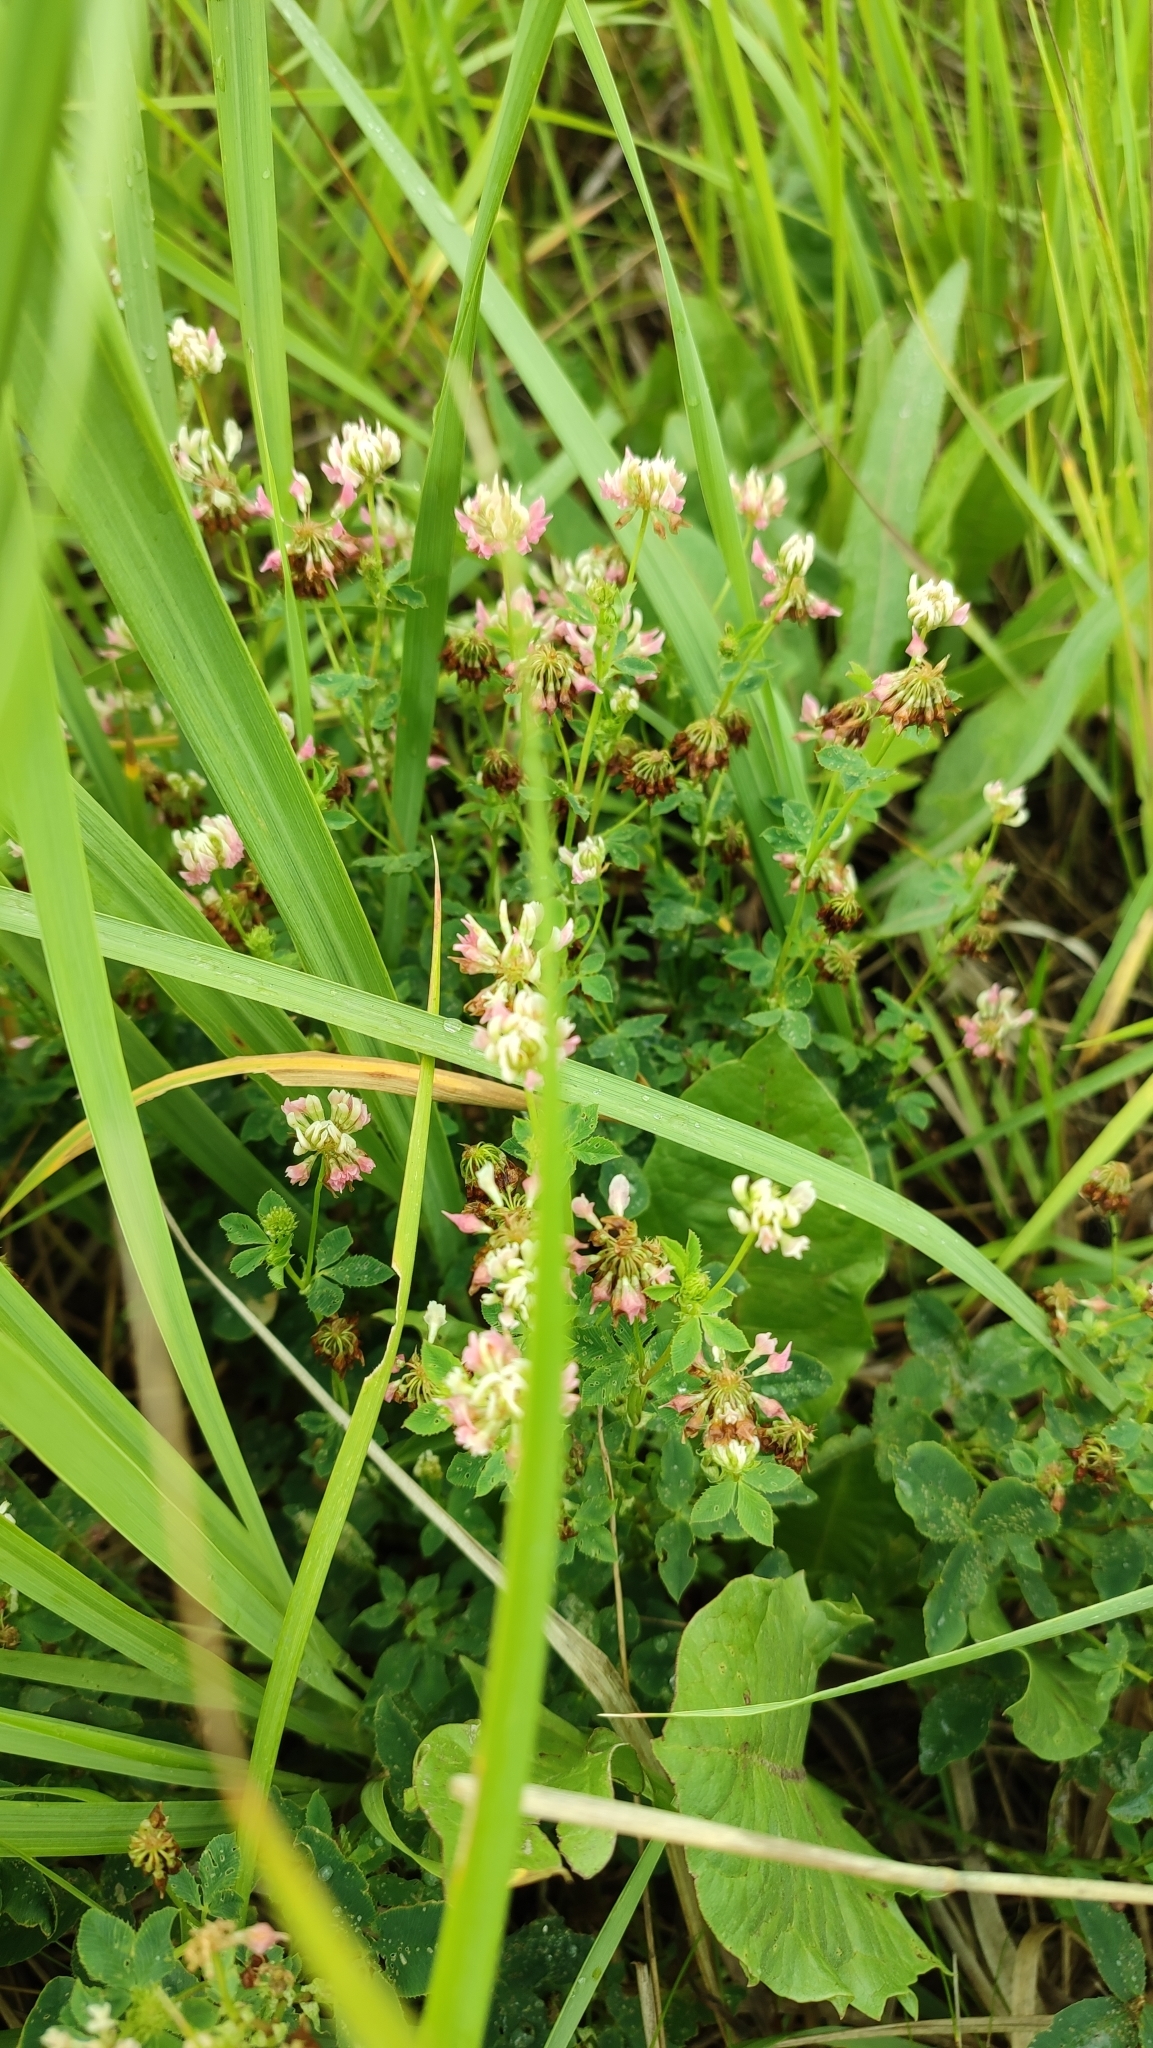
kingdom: Plantae
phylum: Tracheophyta
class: Magnoliopsida
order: Fabales
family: Fabaceae
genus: Trifolium
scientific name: Trifolium hybridum
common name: Alsike clover
